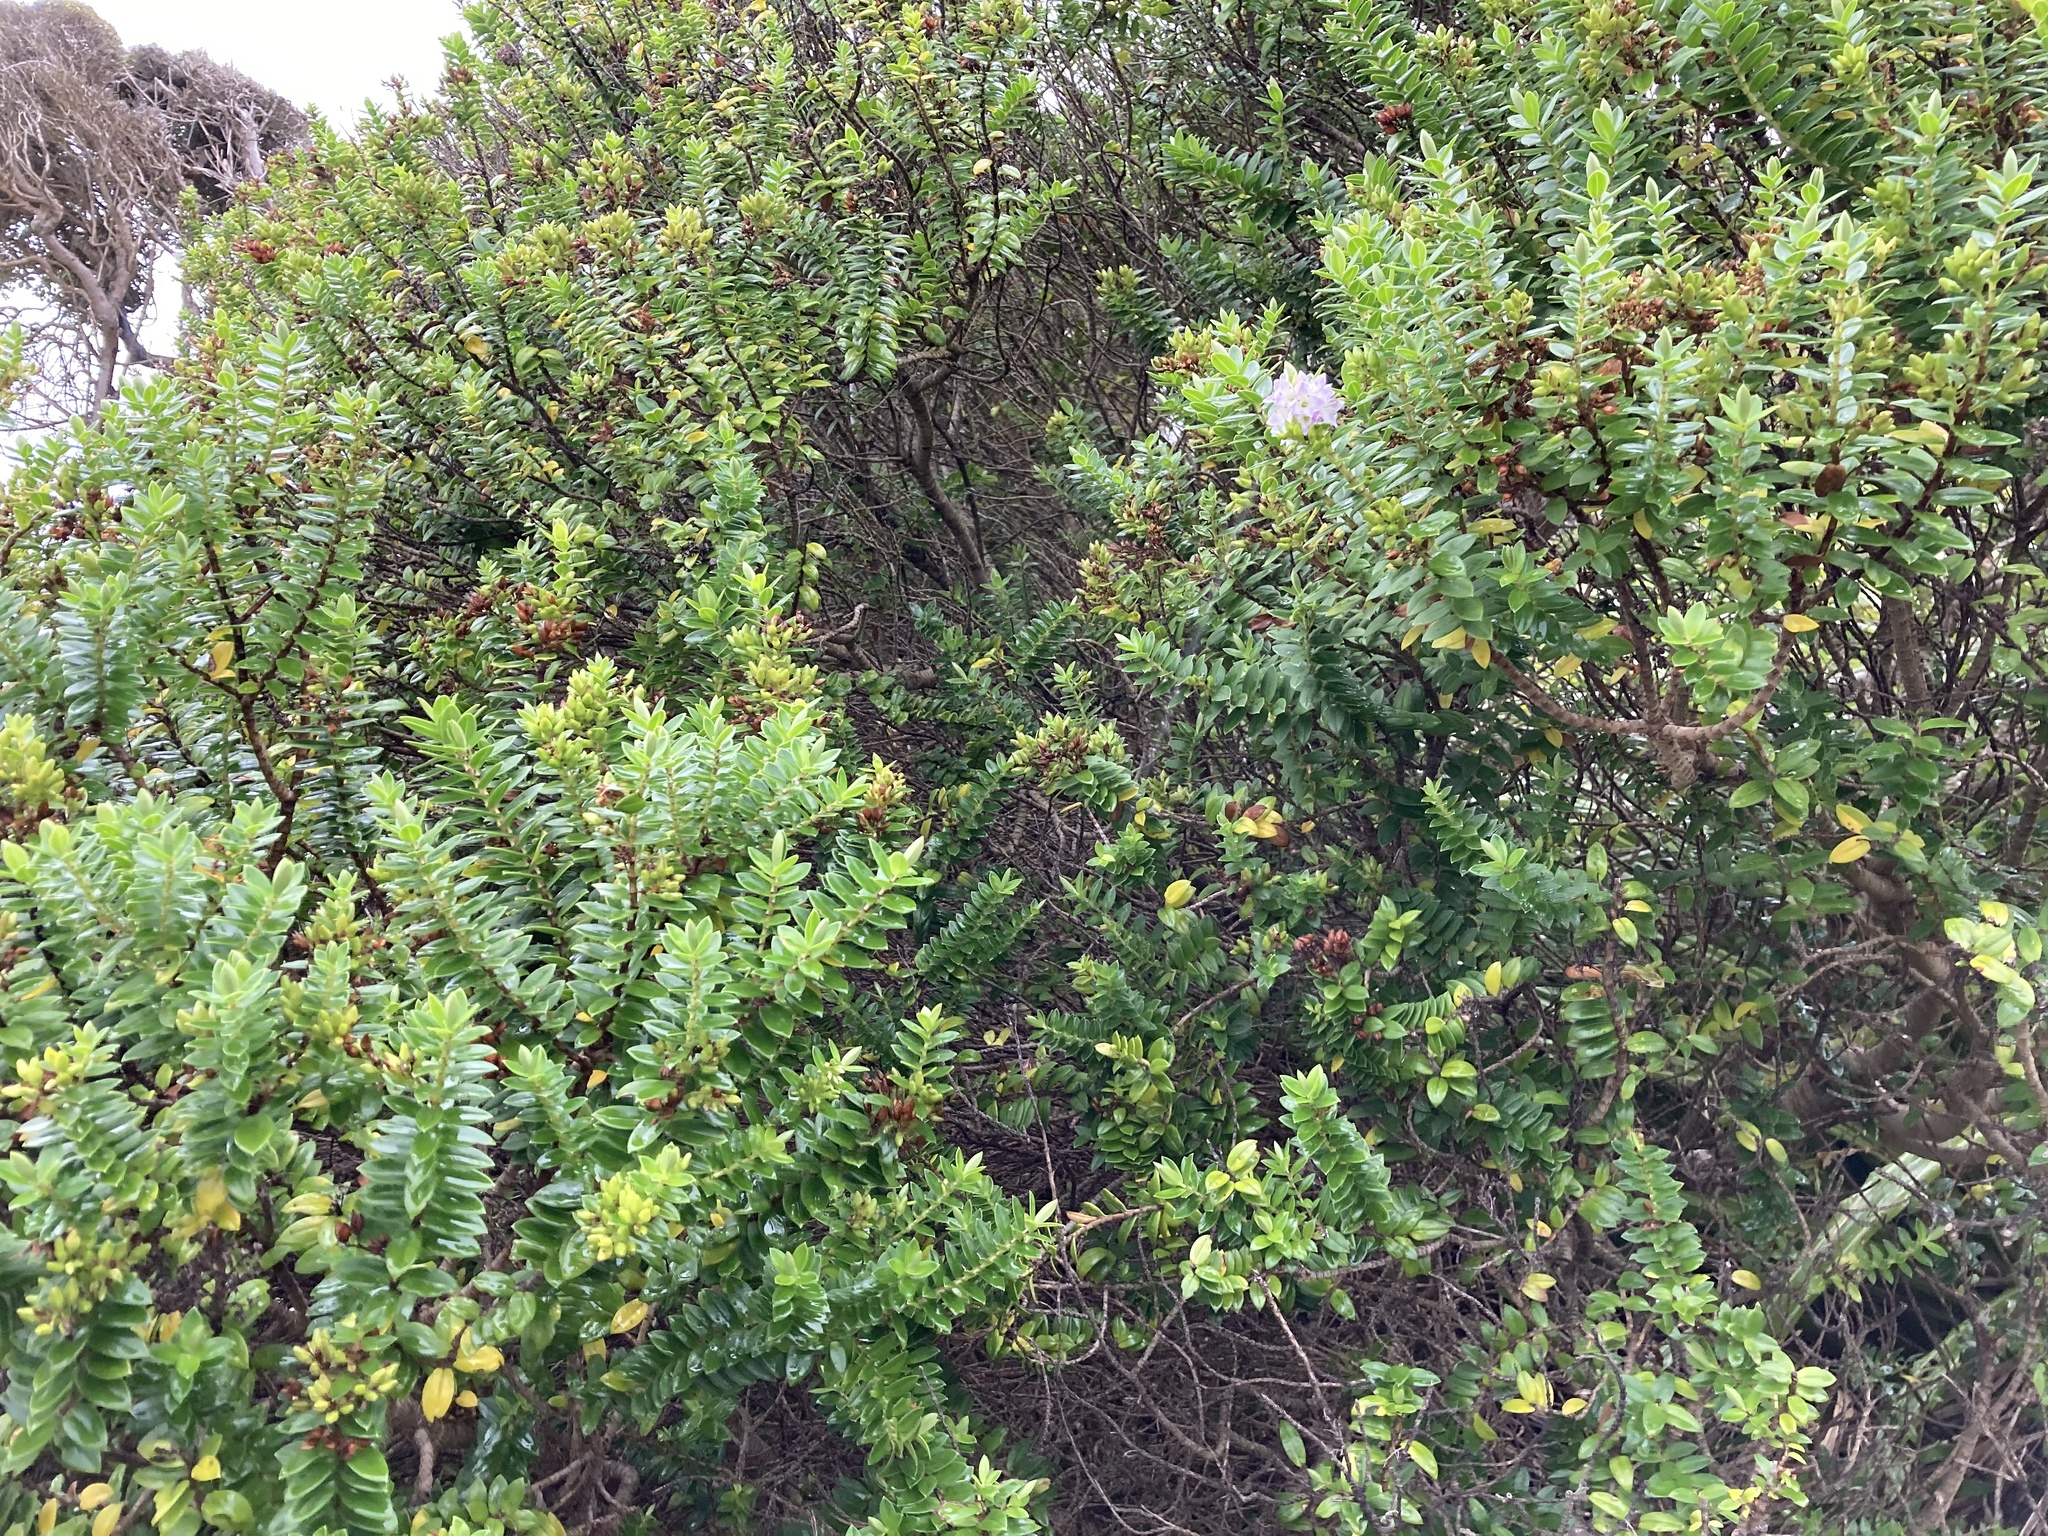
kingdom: Plantae
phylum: Tracheophyta
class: Magnoliopsida
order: Lamiales
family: Plantaginaceae
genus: Veronica
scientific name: Veronica elliptica
